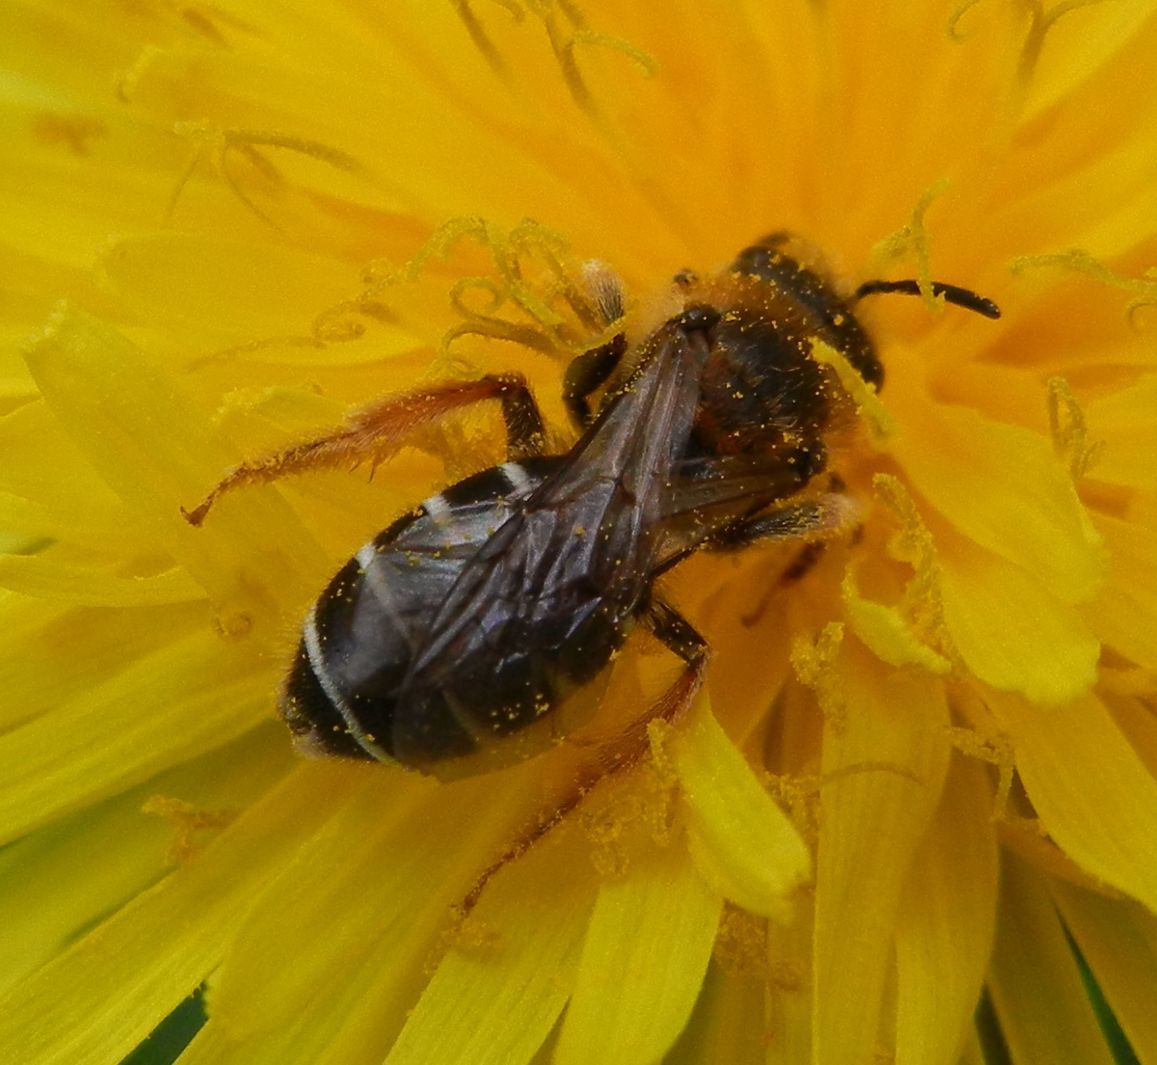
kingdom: Animalia
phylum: Arthropoda
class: Insecta
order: Hymenoptera
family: Halictidae
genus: Halictus
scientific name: Halictus rubicundus
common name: Orange-legged furrow bee
